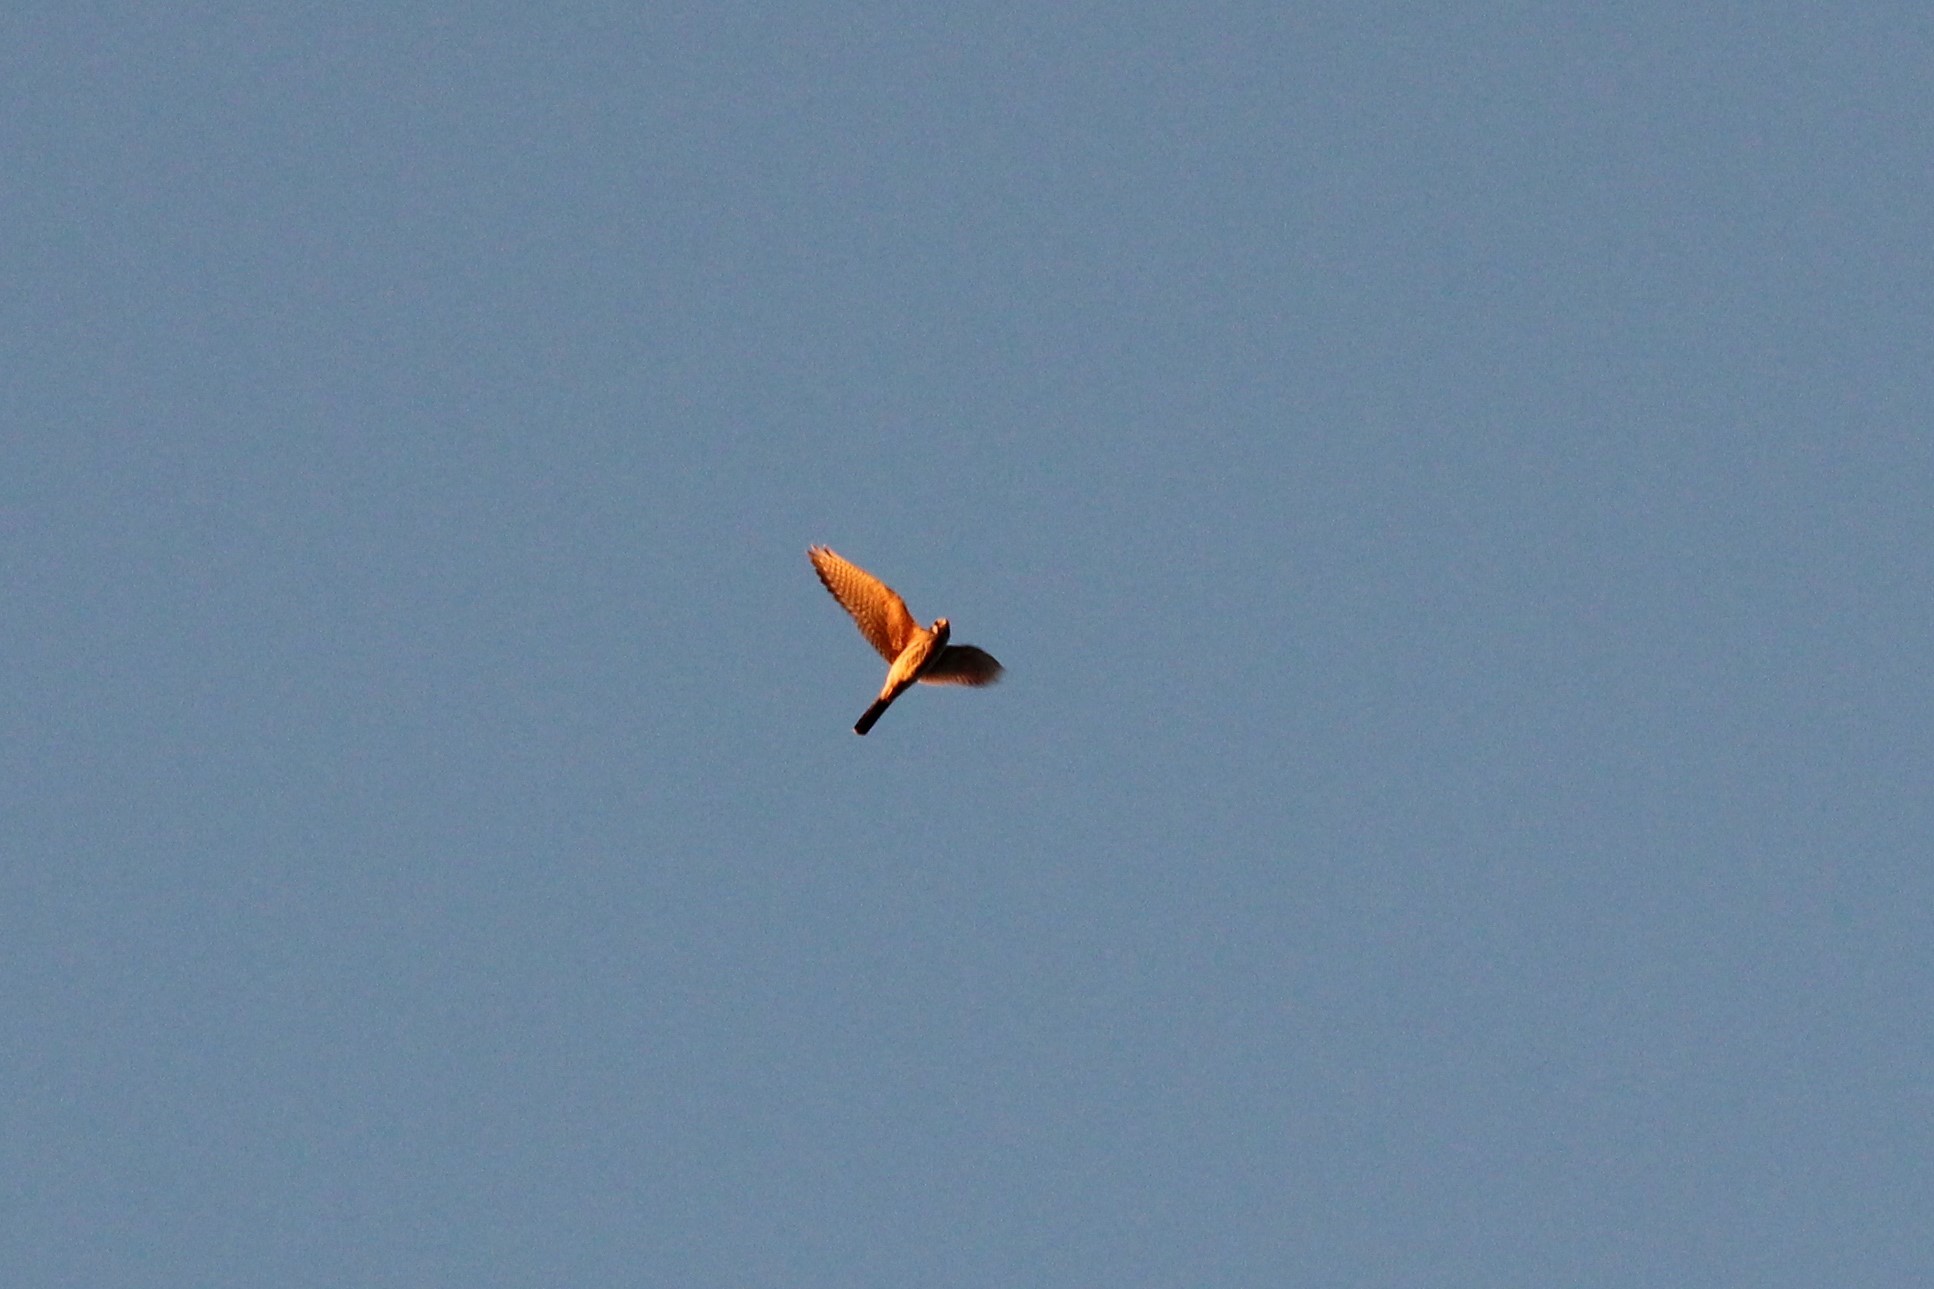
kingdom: Animalia
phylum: Chordata
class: Aves
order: Falconiformes
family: Falconidae
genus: Falco
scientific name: Falco sparverius
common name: American kestrel
